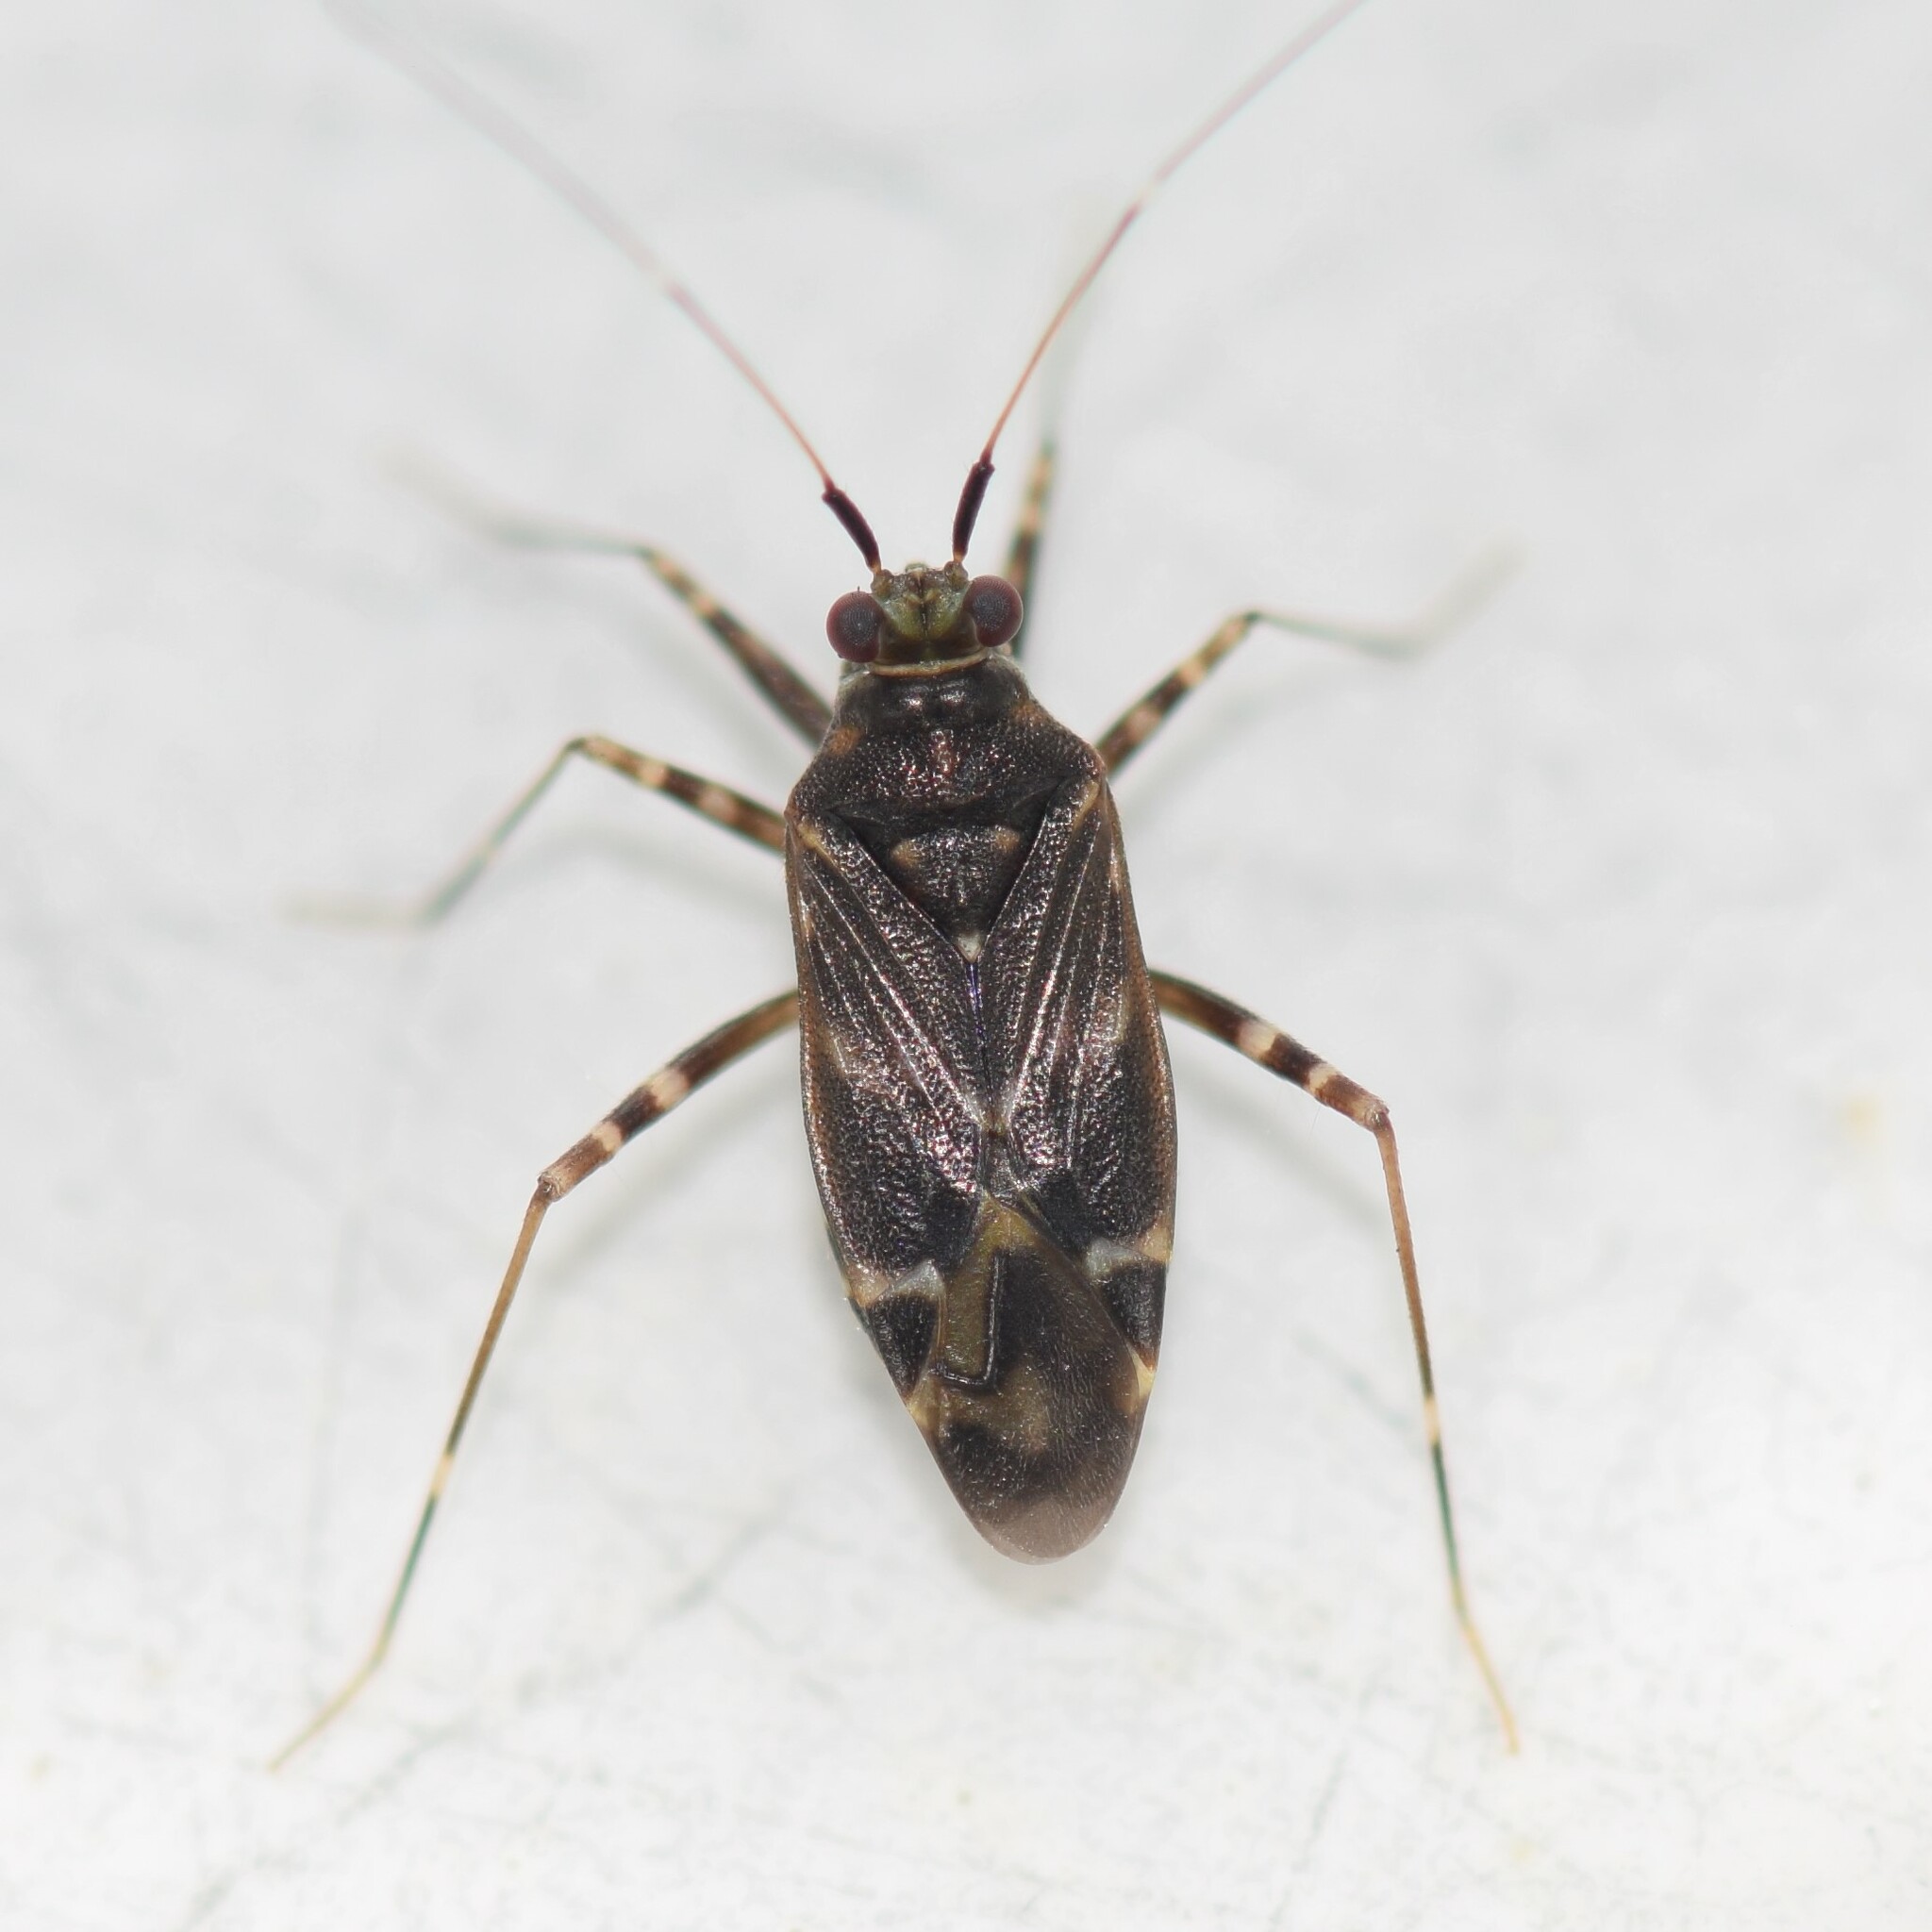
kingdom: Animalia
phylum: Arthropoda
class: Insecta
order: Hemiptera
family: Miridae
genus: Cylapus
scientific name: Cylapus tenuicornis
